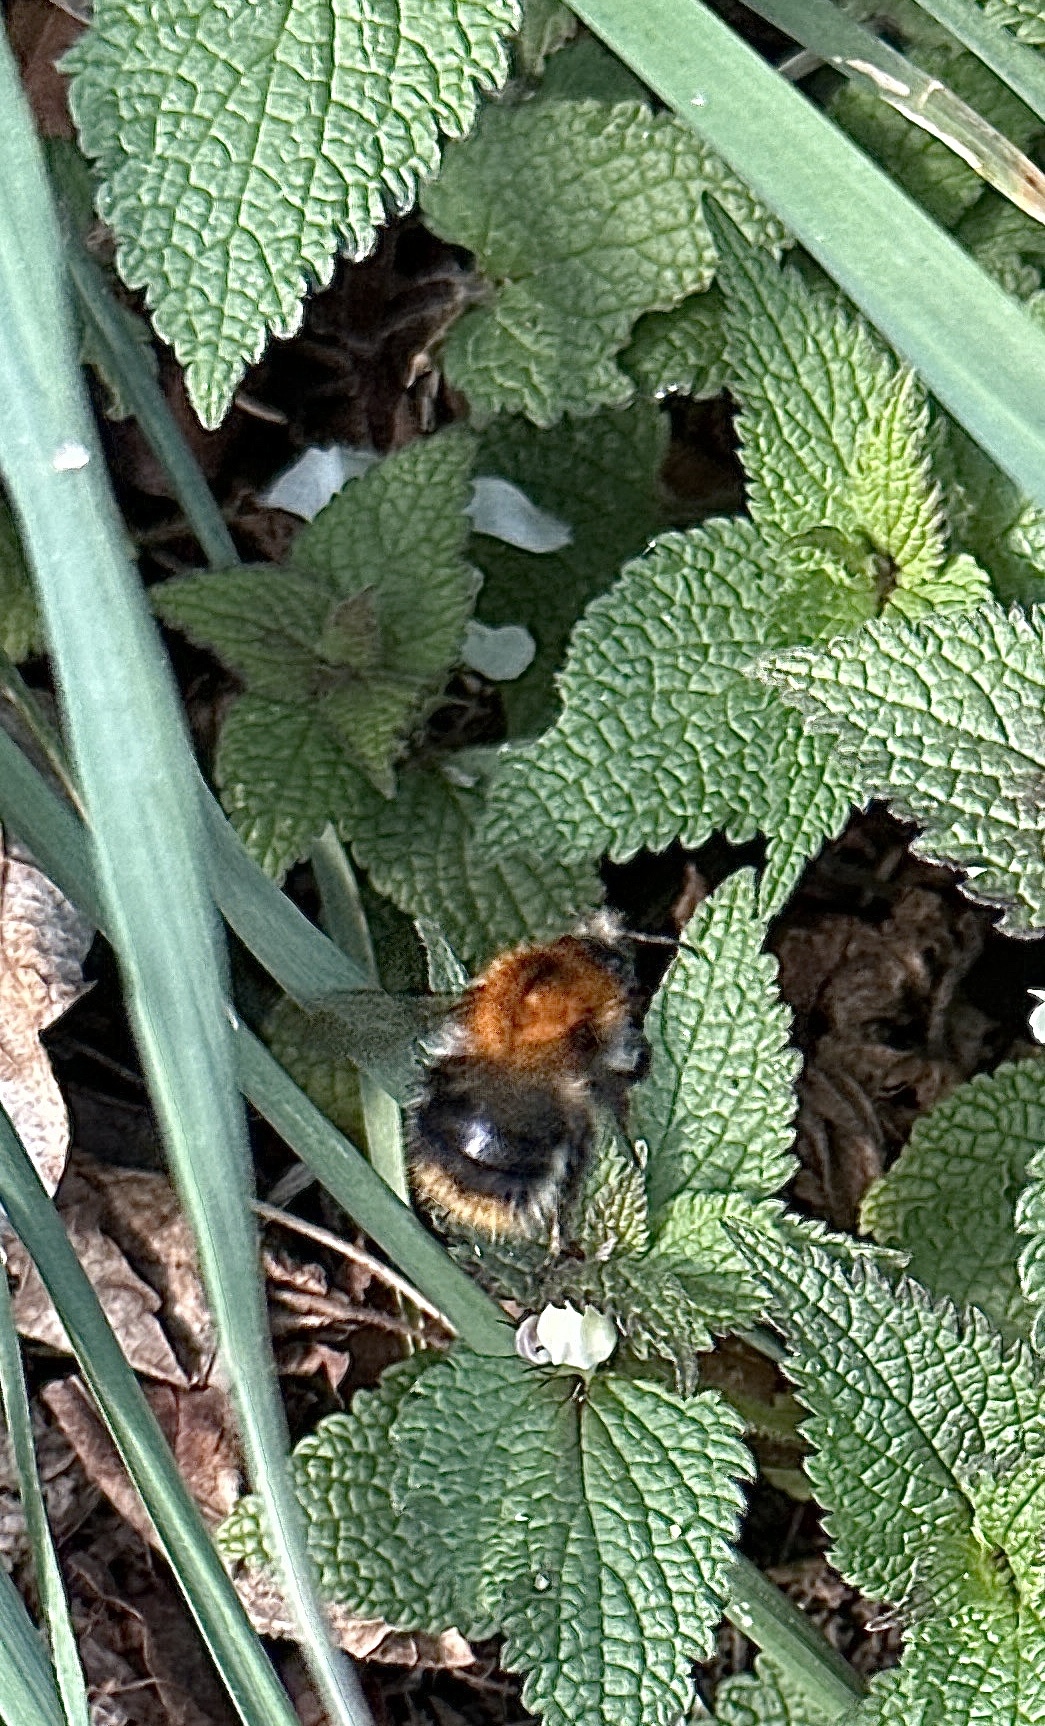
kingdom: Animalia
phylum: Arthropoda
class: Insecta
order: Hymenoptera
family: Apidae
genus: Bombus
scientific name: Bombus pascuorum
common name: Common carder bee
